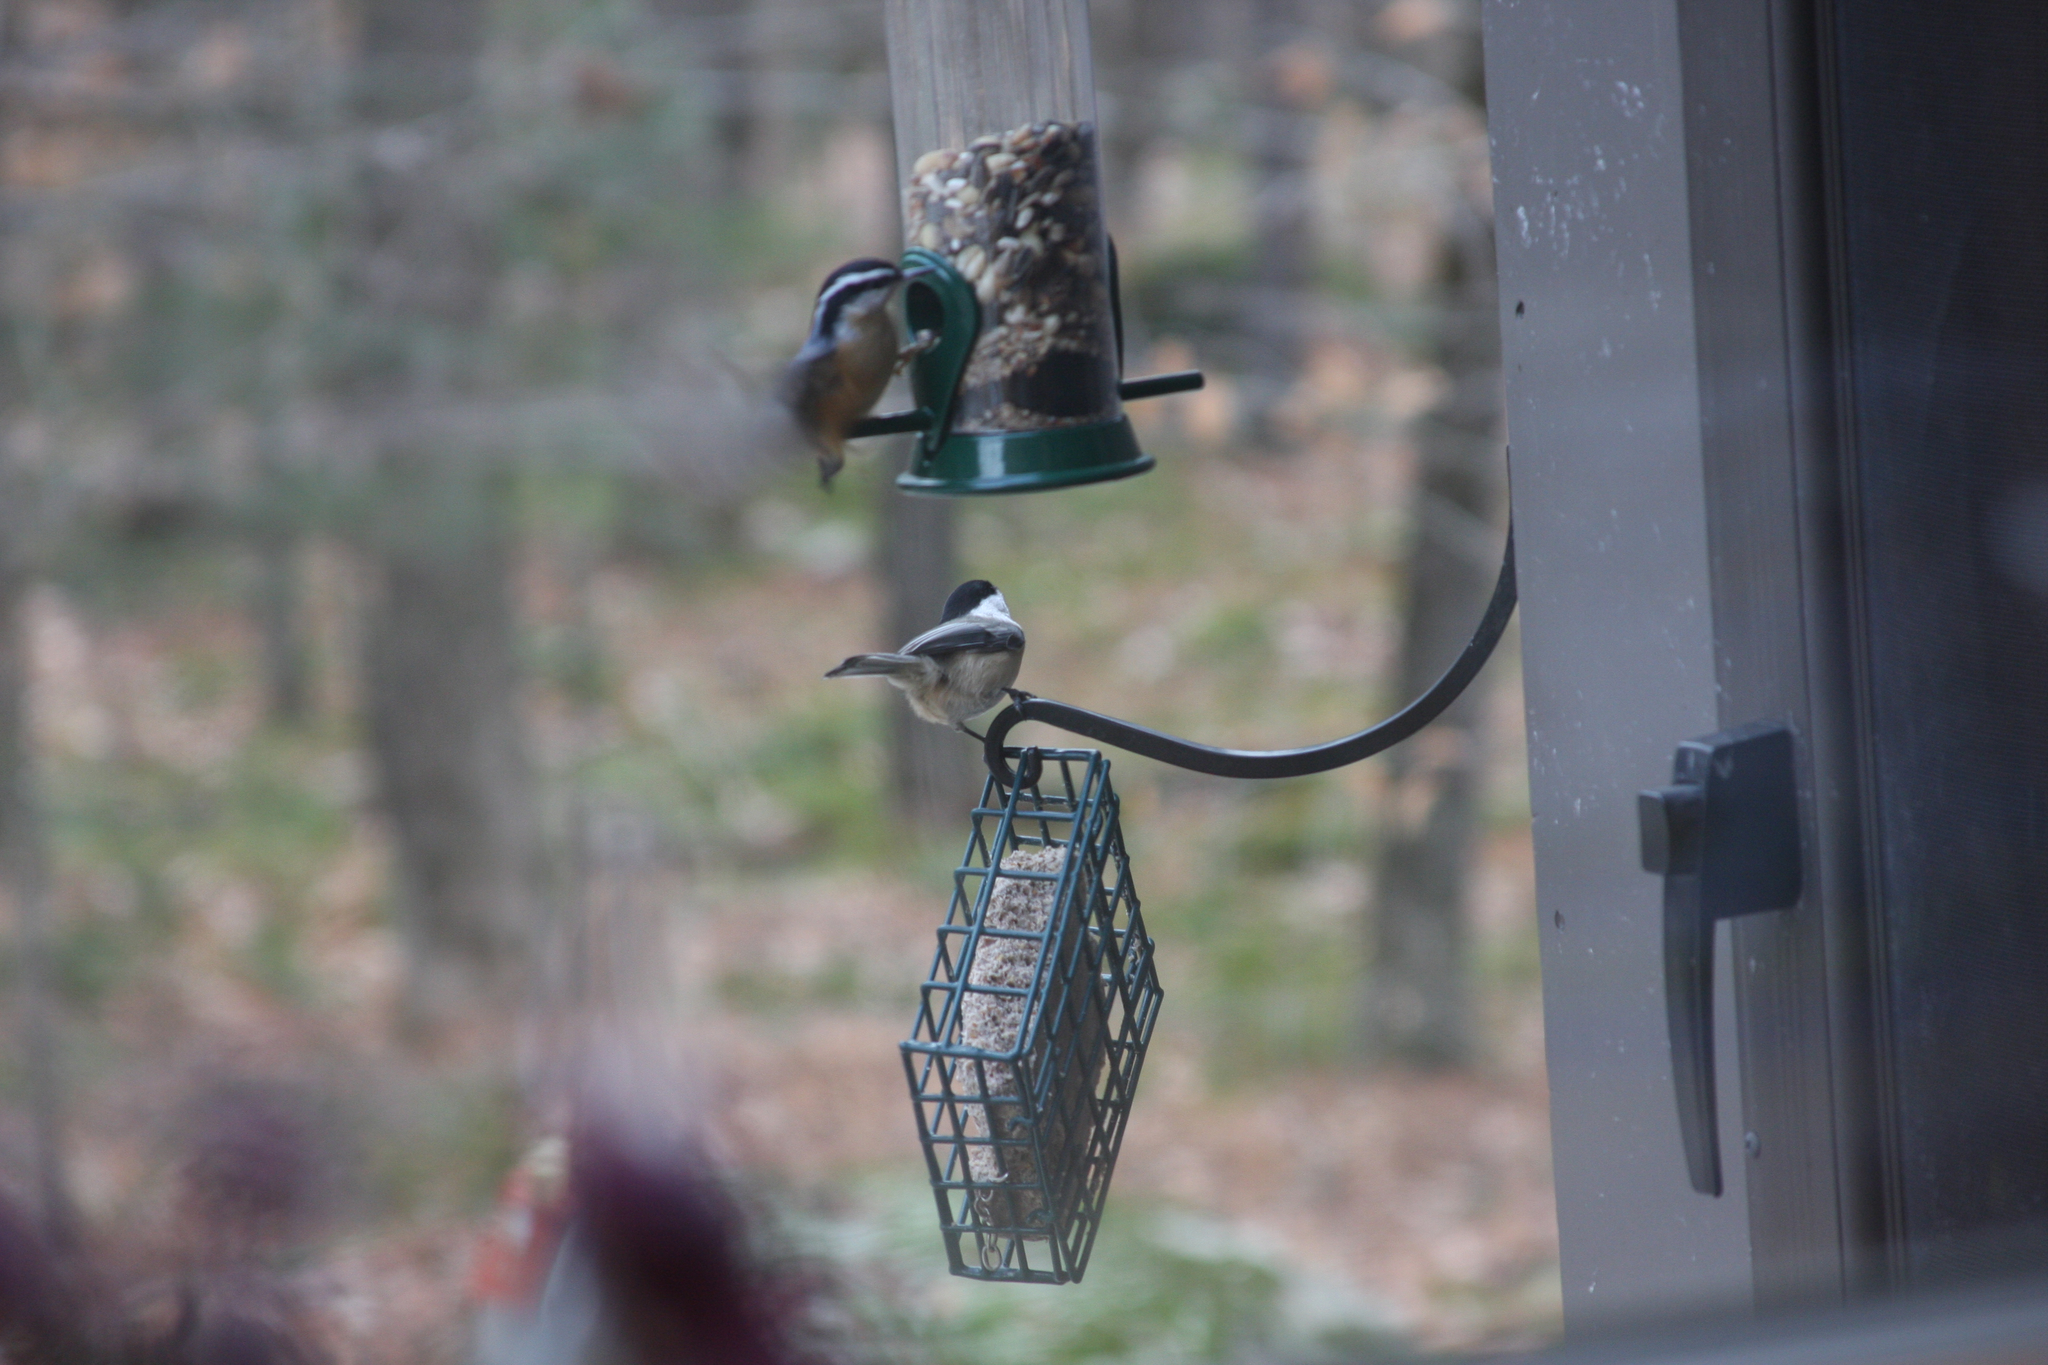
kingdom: Animalia
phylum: Chordata
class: Aves
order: Passeriformes
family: Sittidae
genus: Sitta
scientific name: Sitta canadensis
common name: Red-breasted nuthatch
